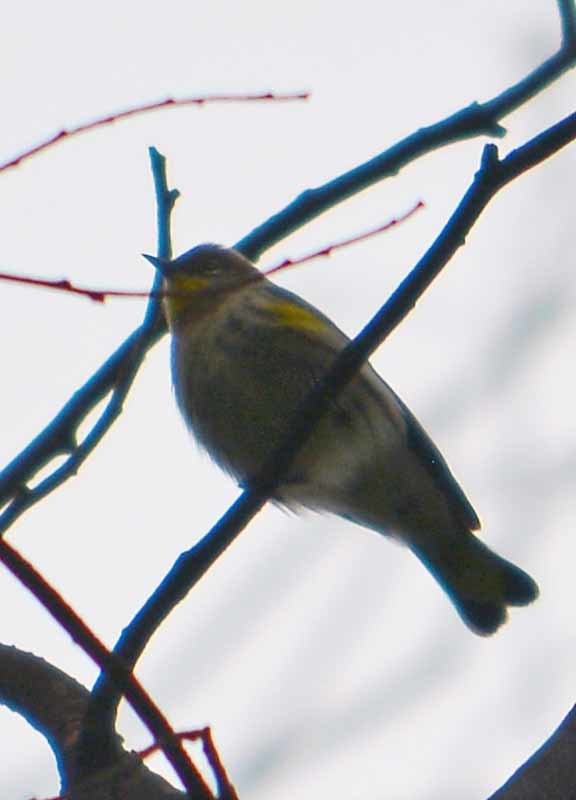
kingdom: Animalia
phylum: Chordata
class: Aves
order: Passeriformes
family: Parulidae
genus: Setophaga
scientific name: Setophaga coronata
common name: Myrtle warbler
